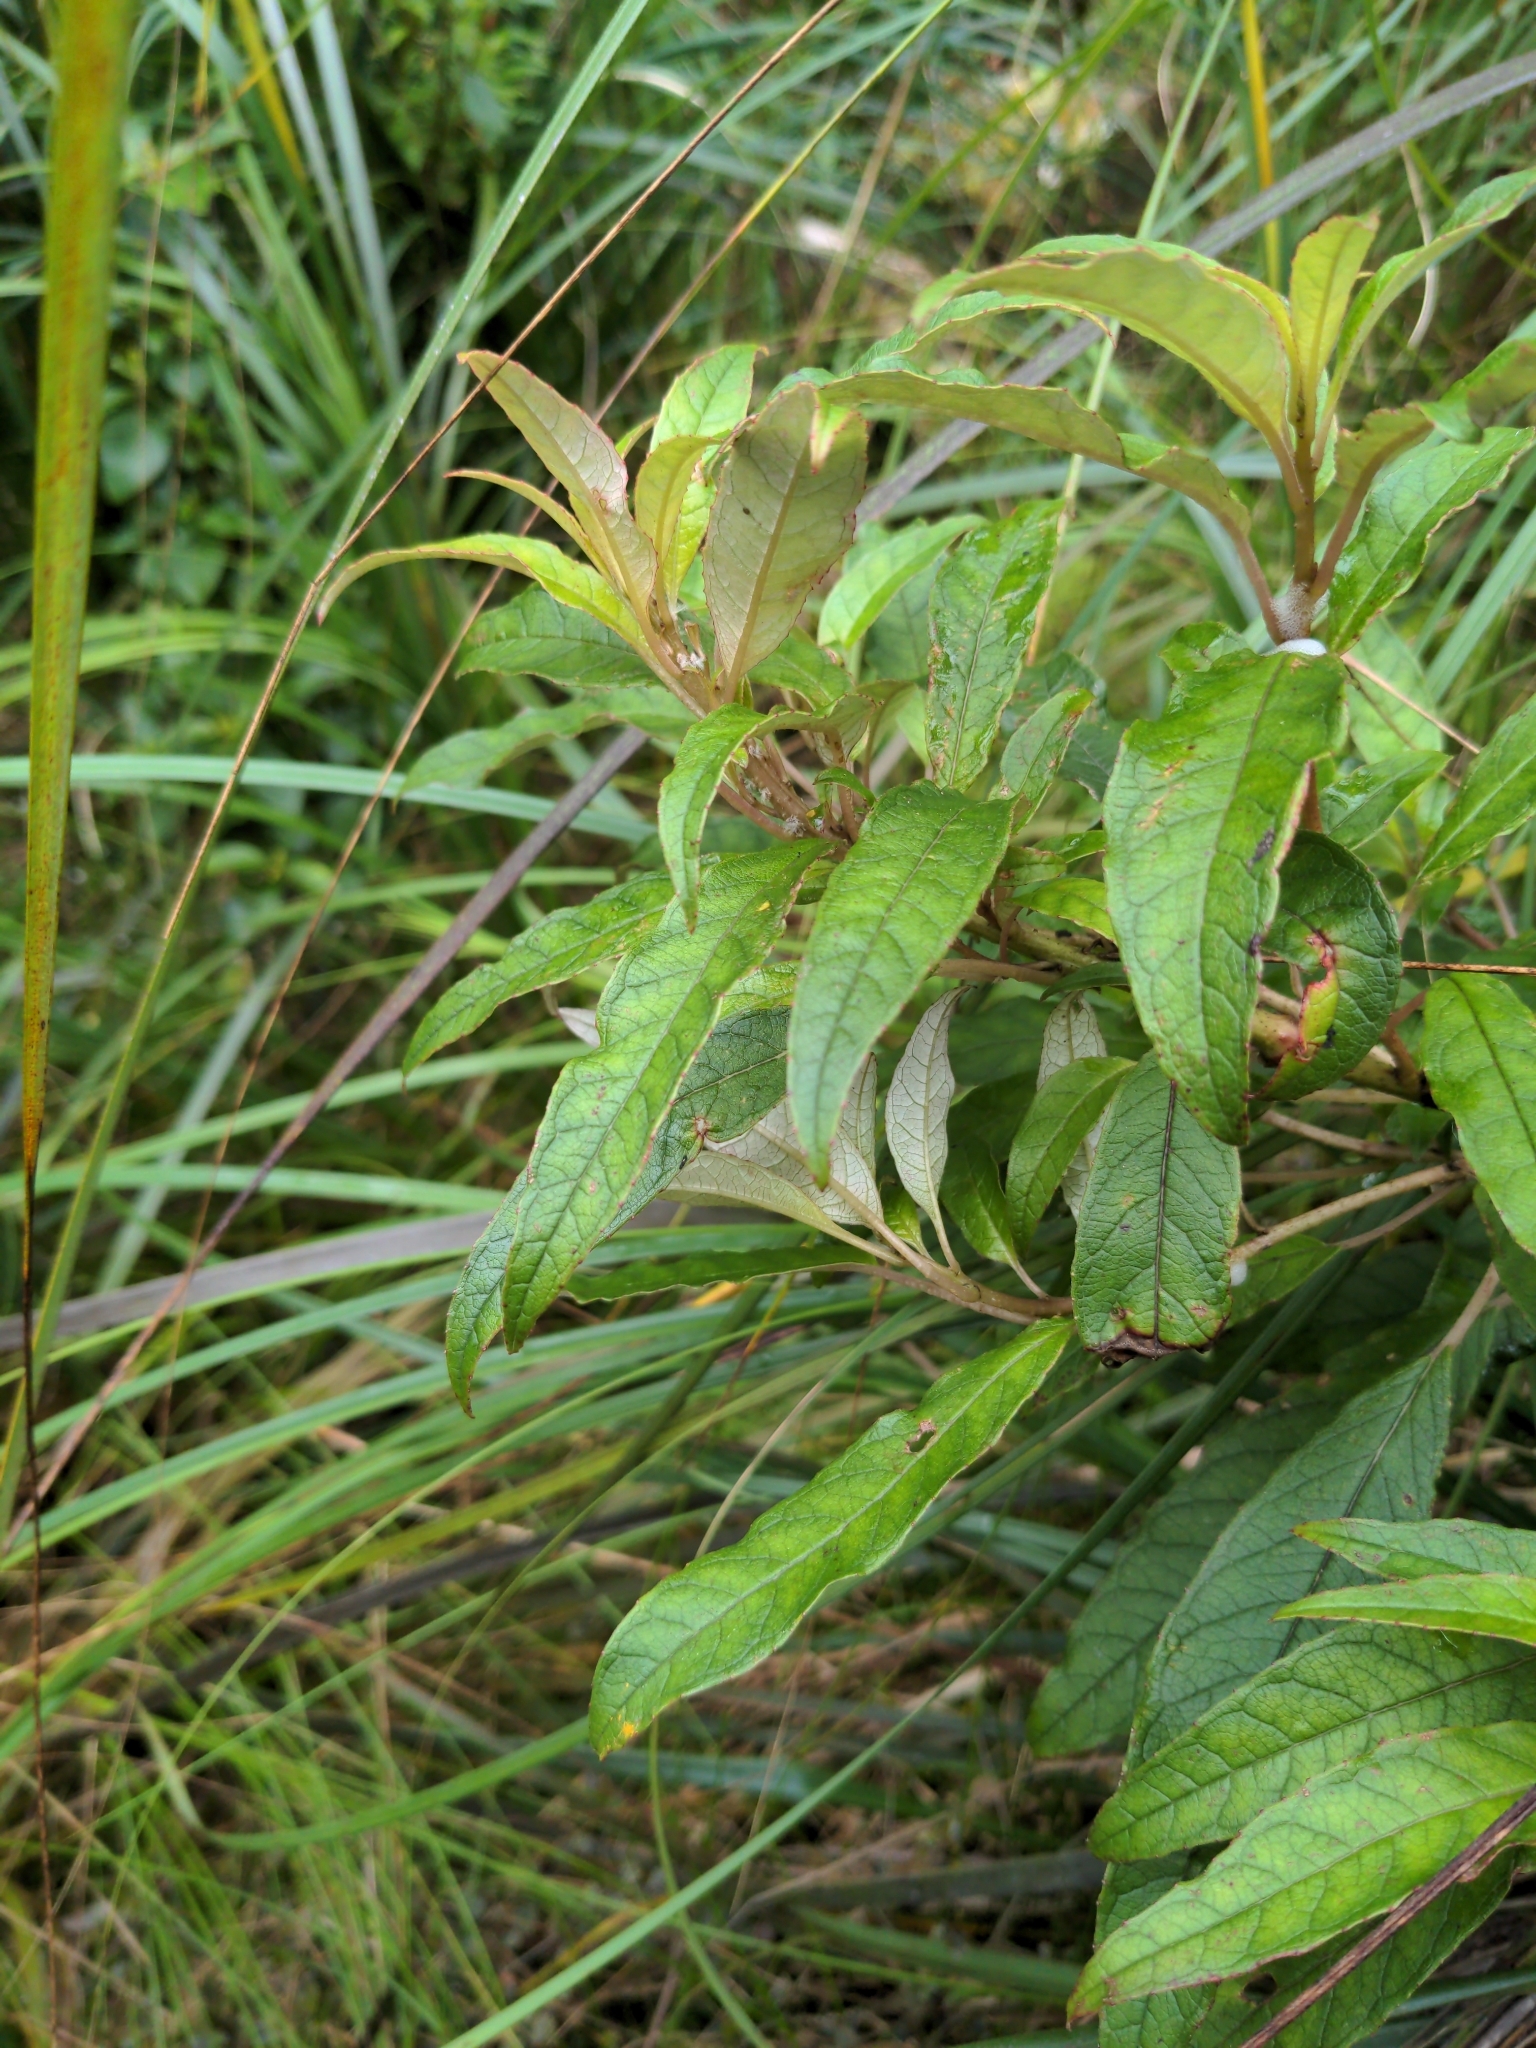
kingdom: Plantae
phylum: Tracheophyta
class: Magnoliopsida
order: Myrtales
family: Onagraceae
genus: Fuchsia
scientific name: Fuchsia excorticata
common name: Tree fuchsia
